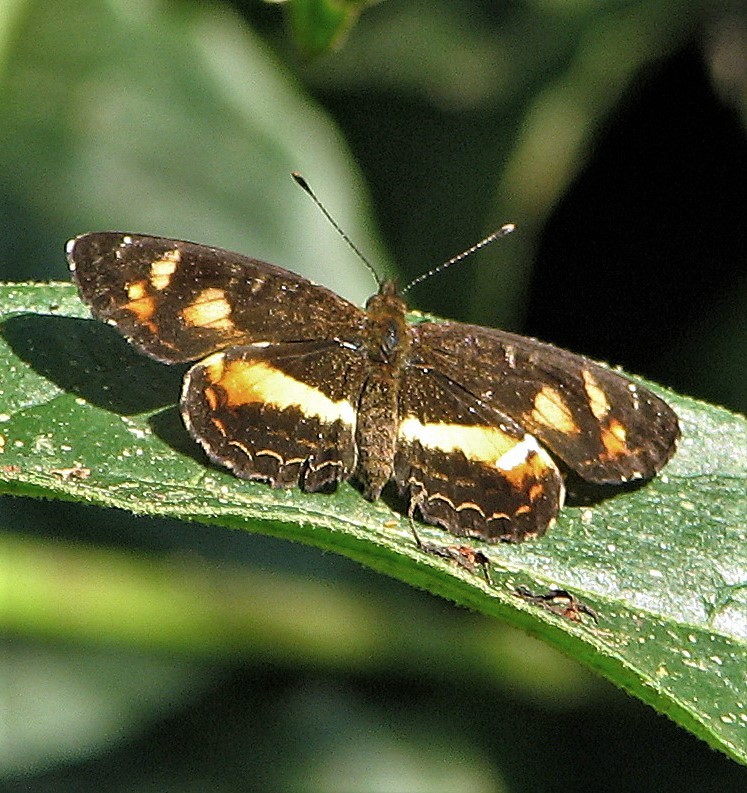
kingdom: Animalia
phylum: Arthropoda
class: Insecta
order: Lepidoptera
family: Nymphalidae
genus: Ortilia
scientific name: Ortilia orthia
